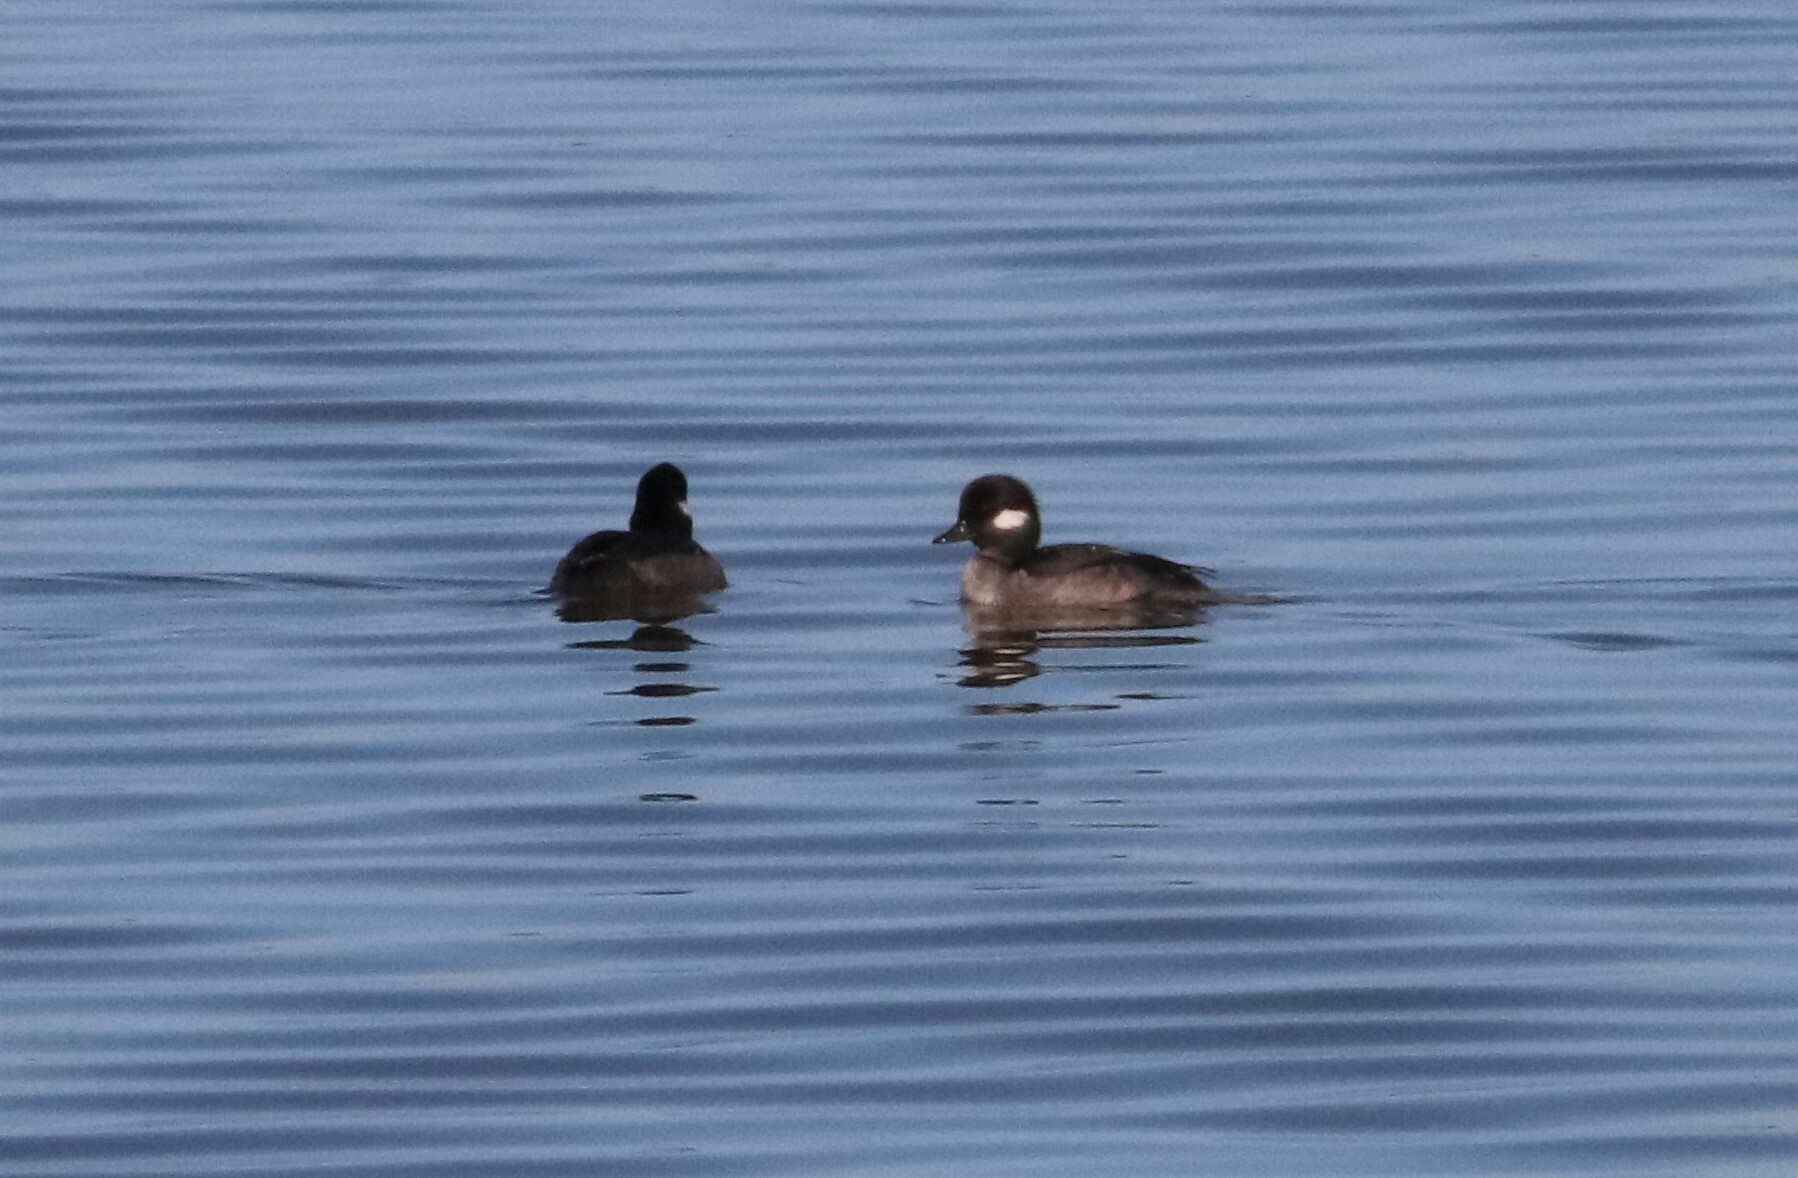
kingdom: Animalia
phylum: Chordata
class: Aves
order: Anseriformes
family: Anatidae
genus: Bucephala
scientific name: Bucephala albeola
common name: Bufflehead
